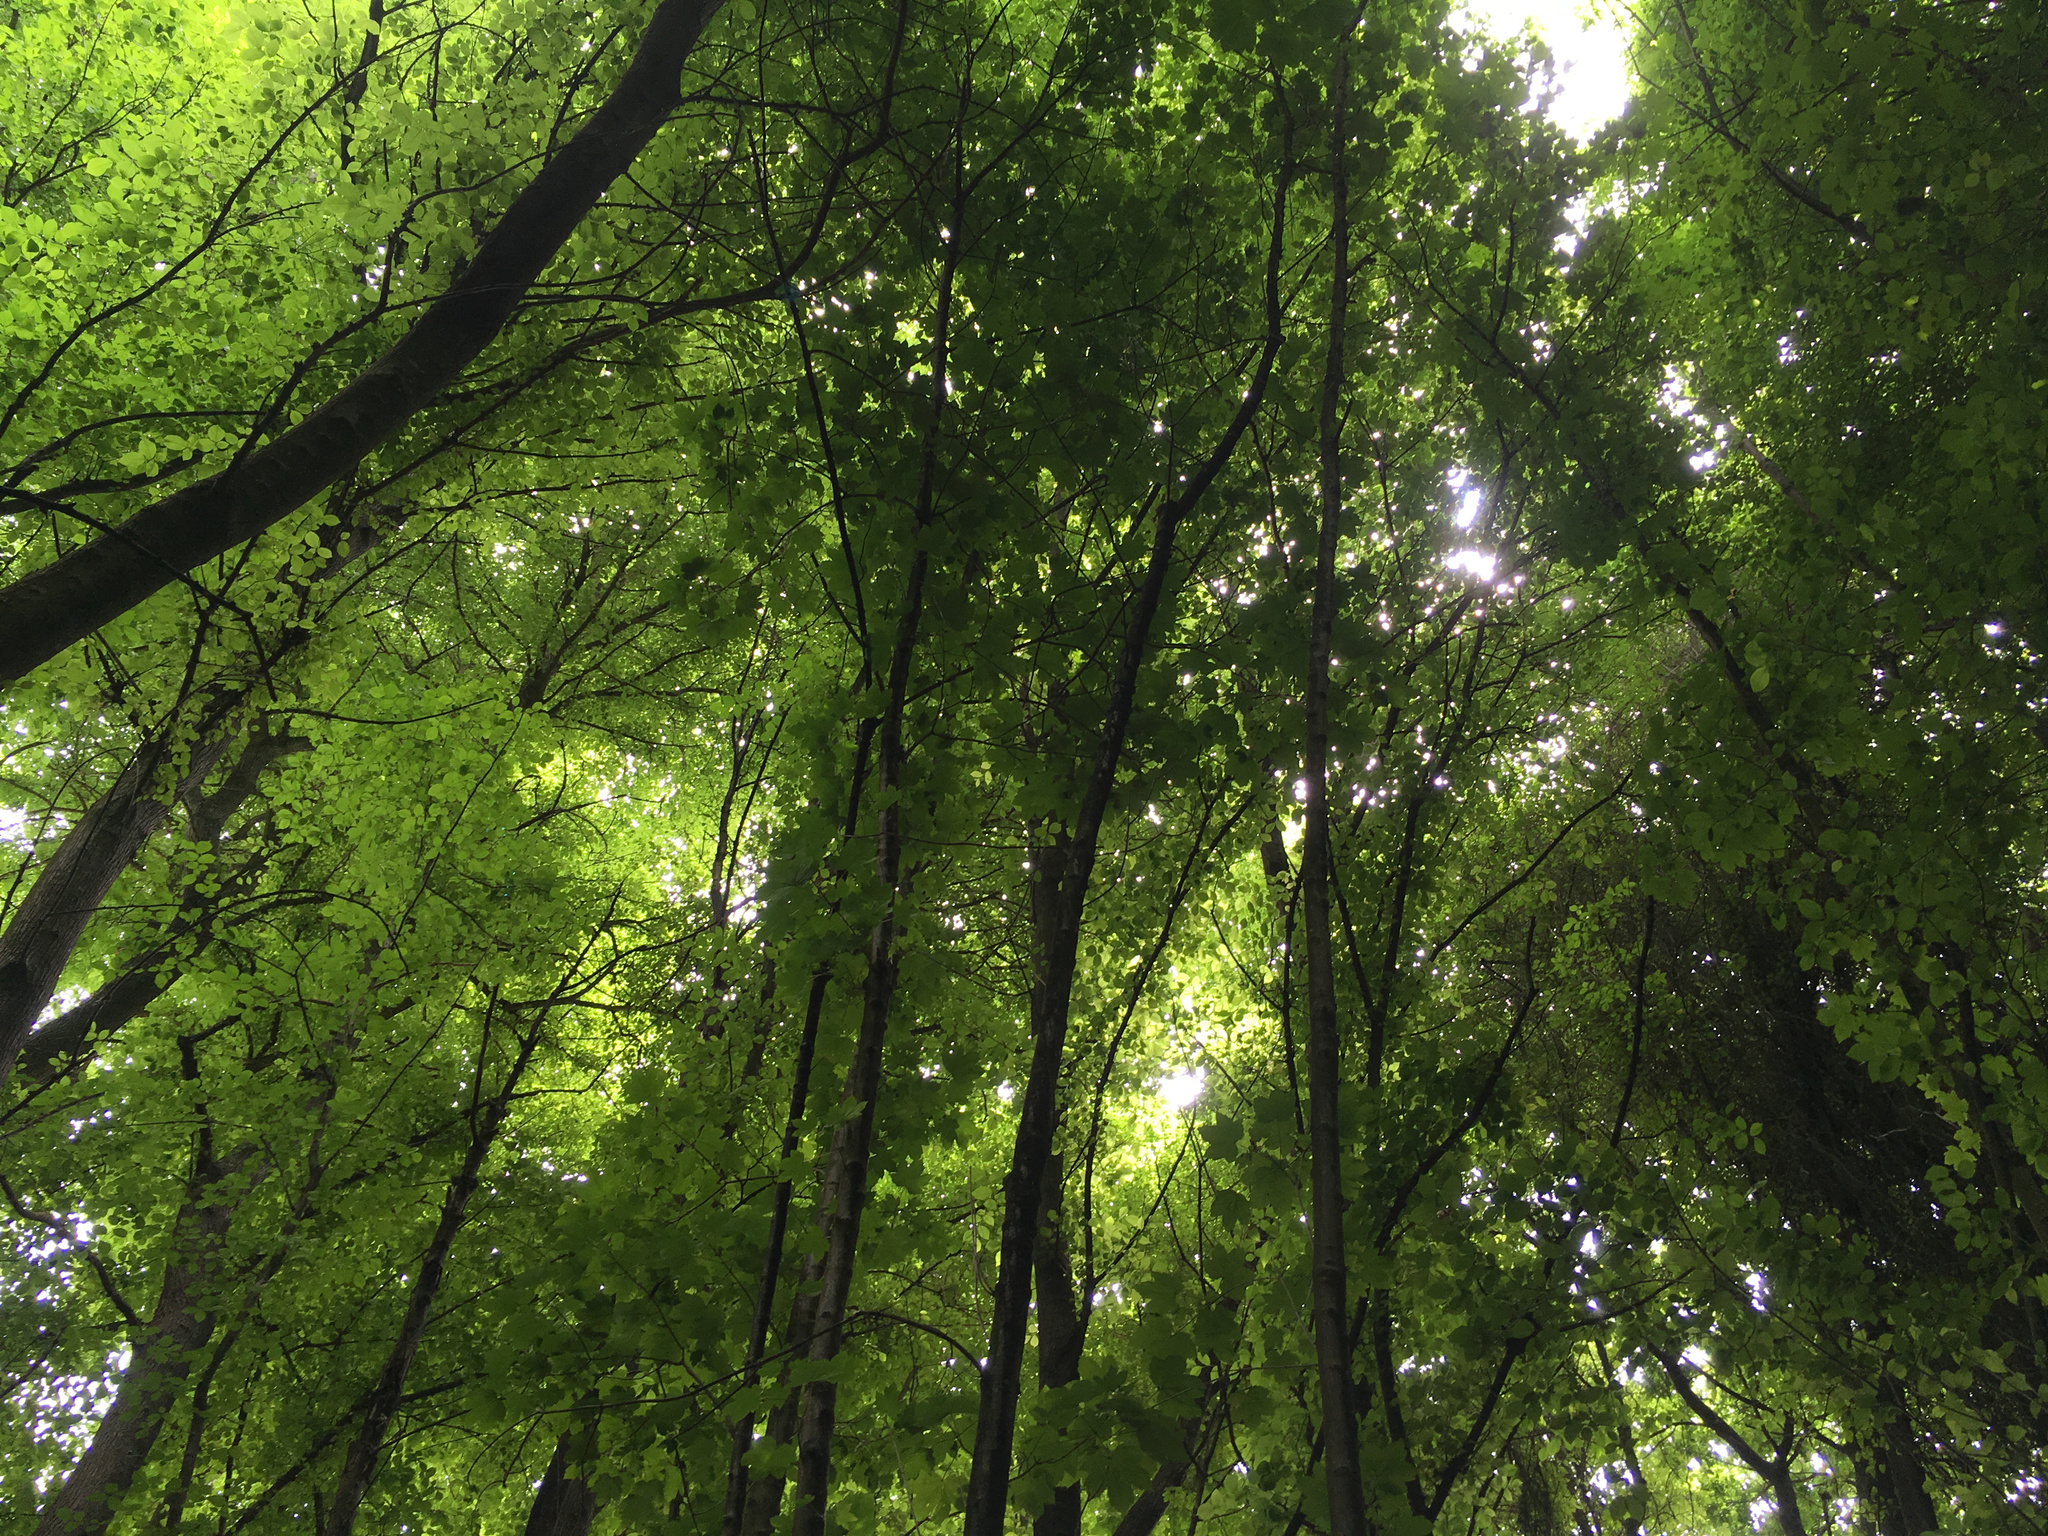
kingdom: Plantae
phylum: Tracheophyta
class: Magnoliopsida
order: Sapindales
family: Sapindaceae
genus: Acer
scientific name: Acer pseudoplatanus
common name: Sycamore
